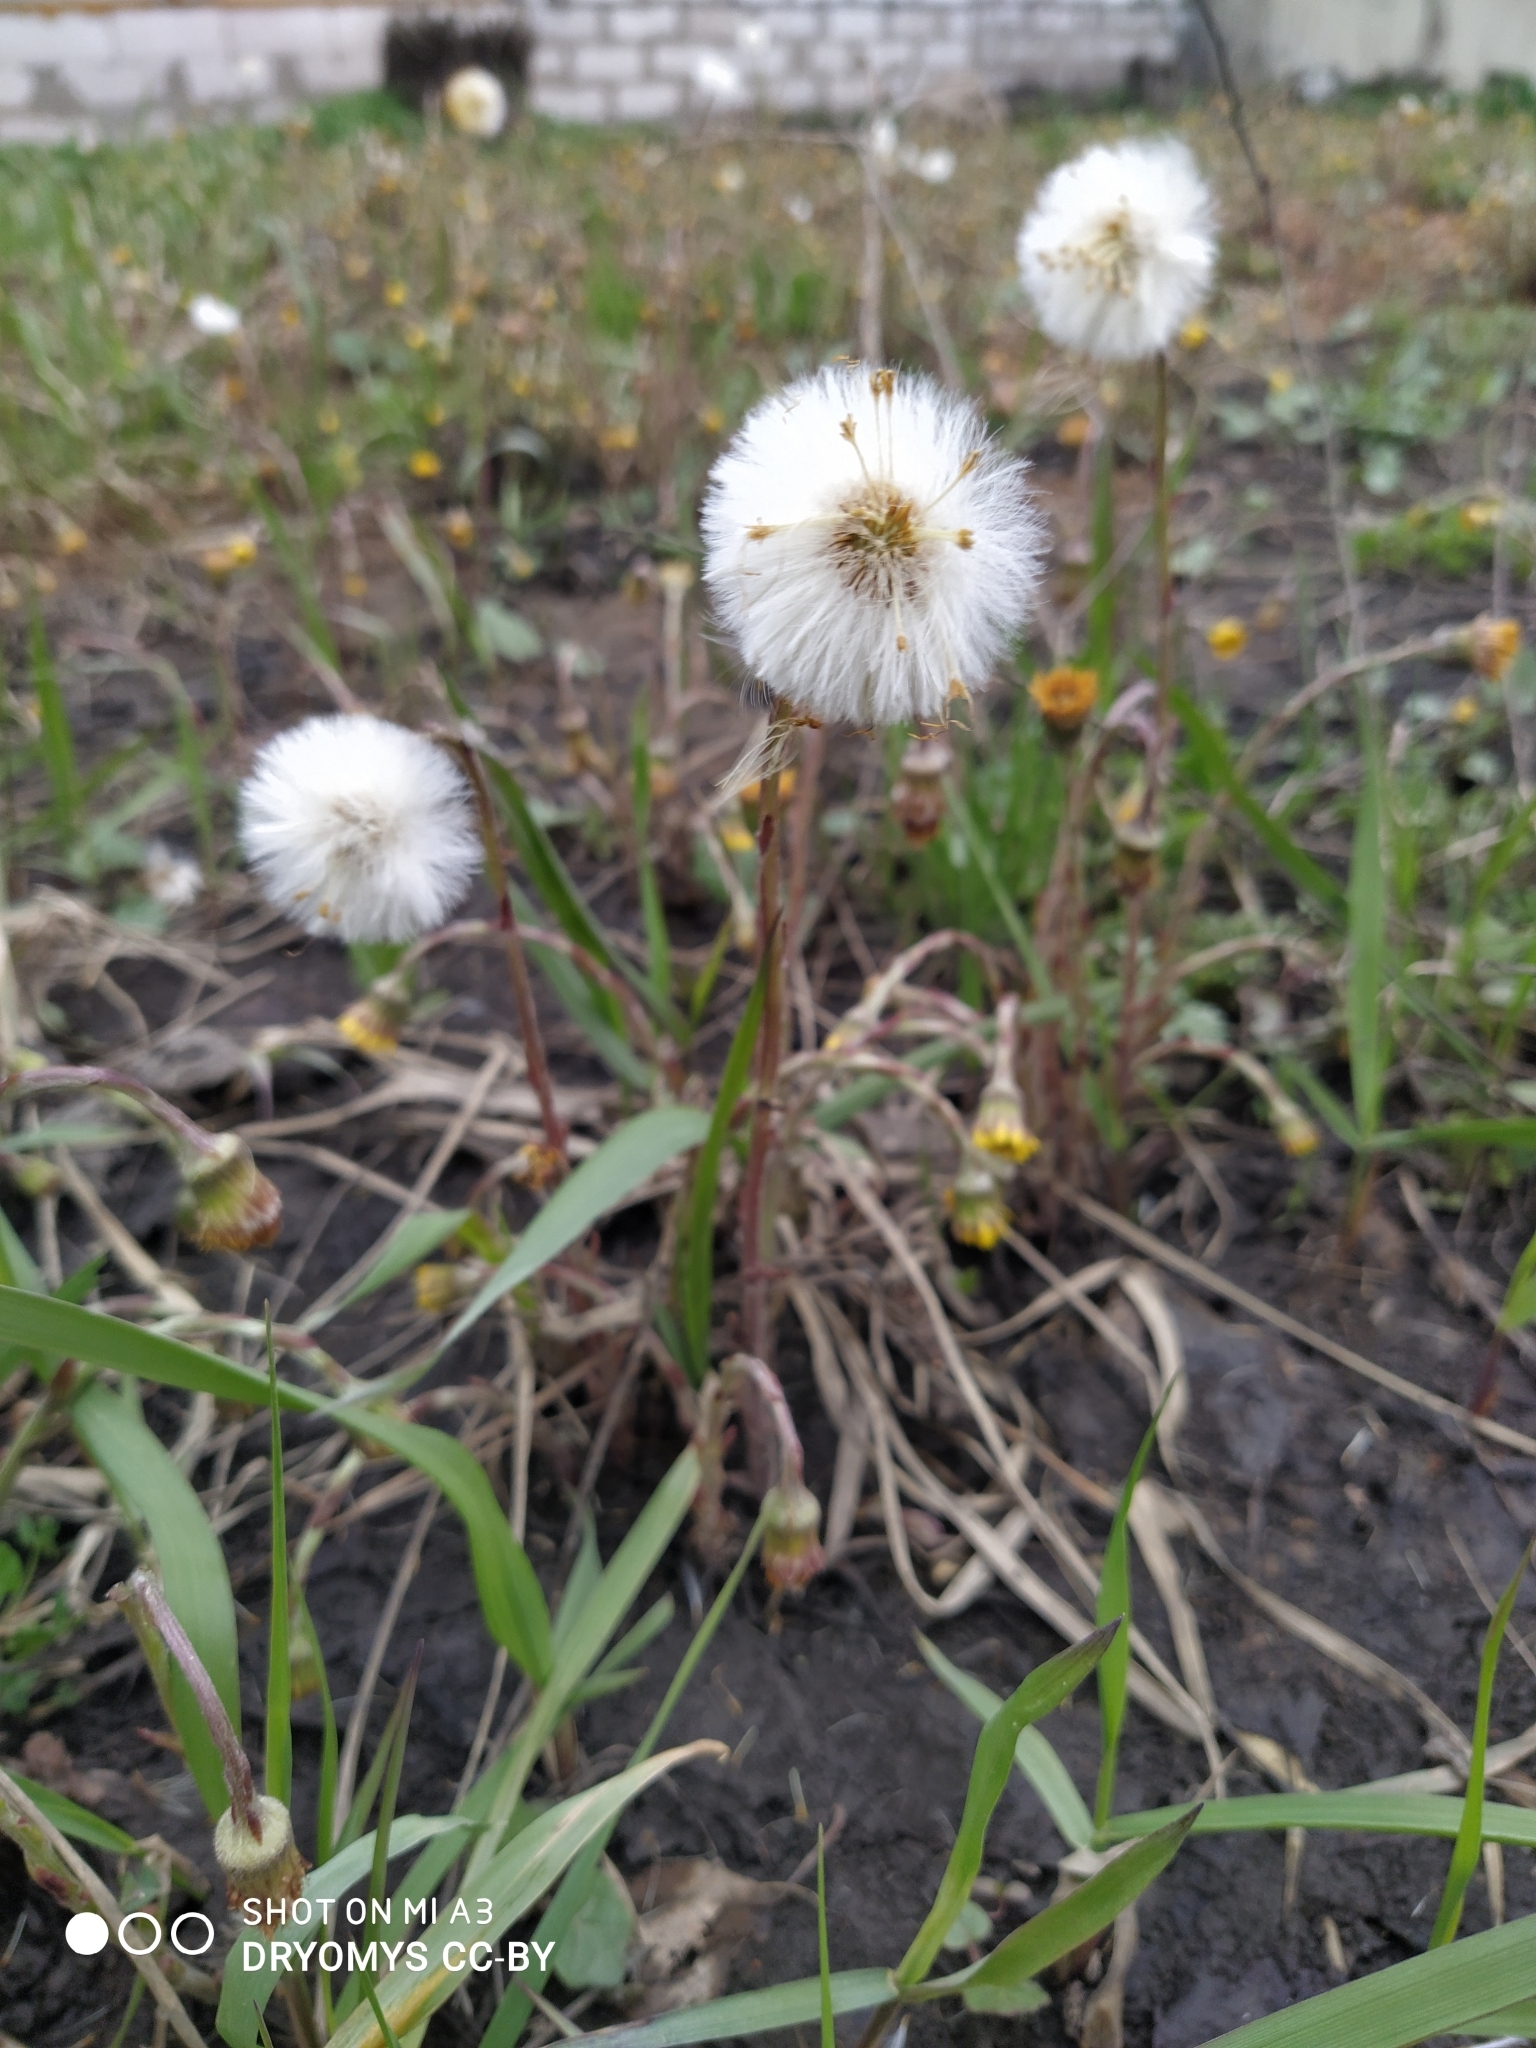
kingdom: Plantae
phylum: Tracheophyta
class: Magnoliopsida
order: Asterales
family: Asteraceae
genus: Tussilago
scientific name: Tussilago farfara
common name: Coltsfoot
